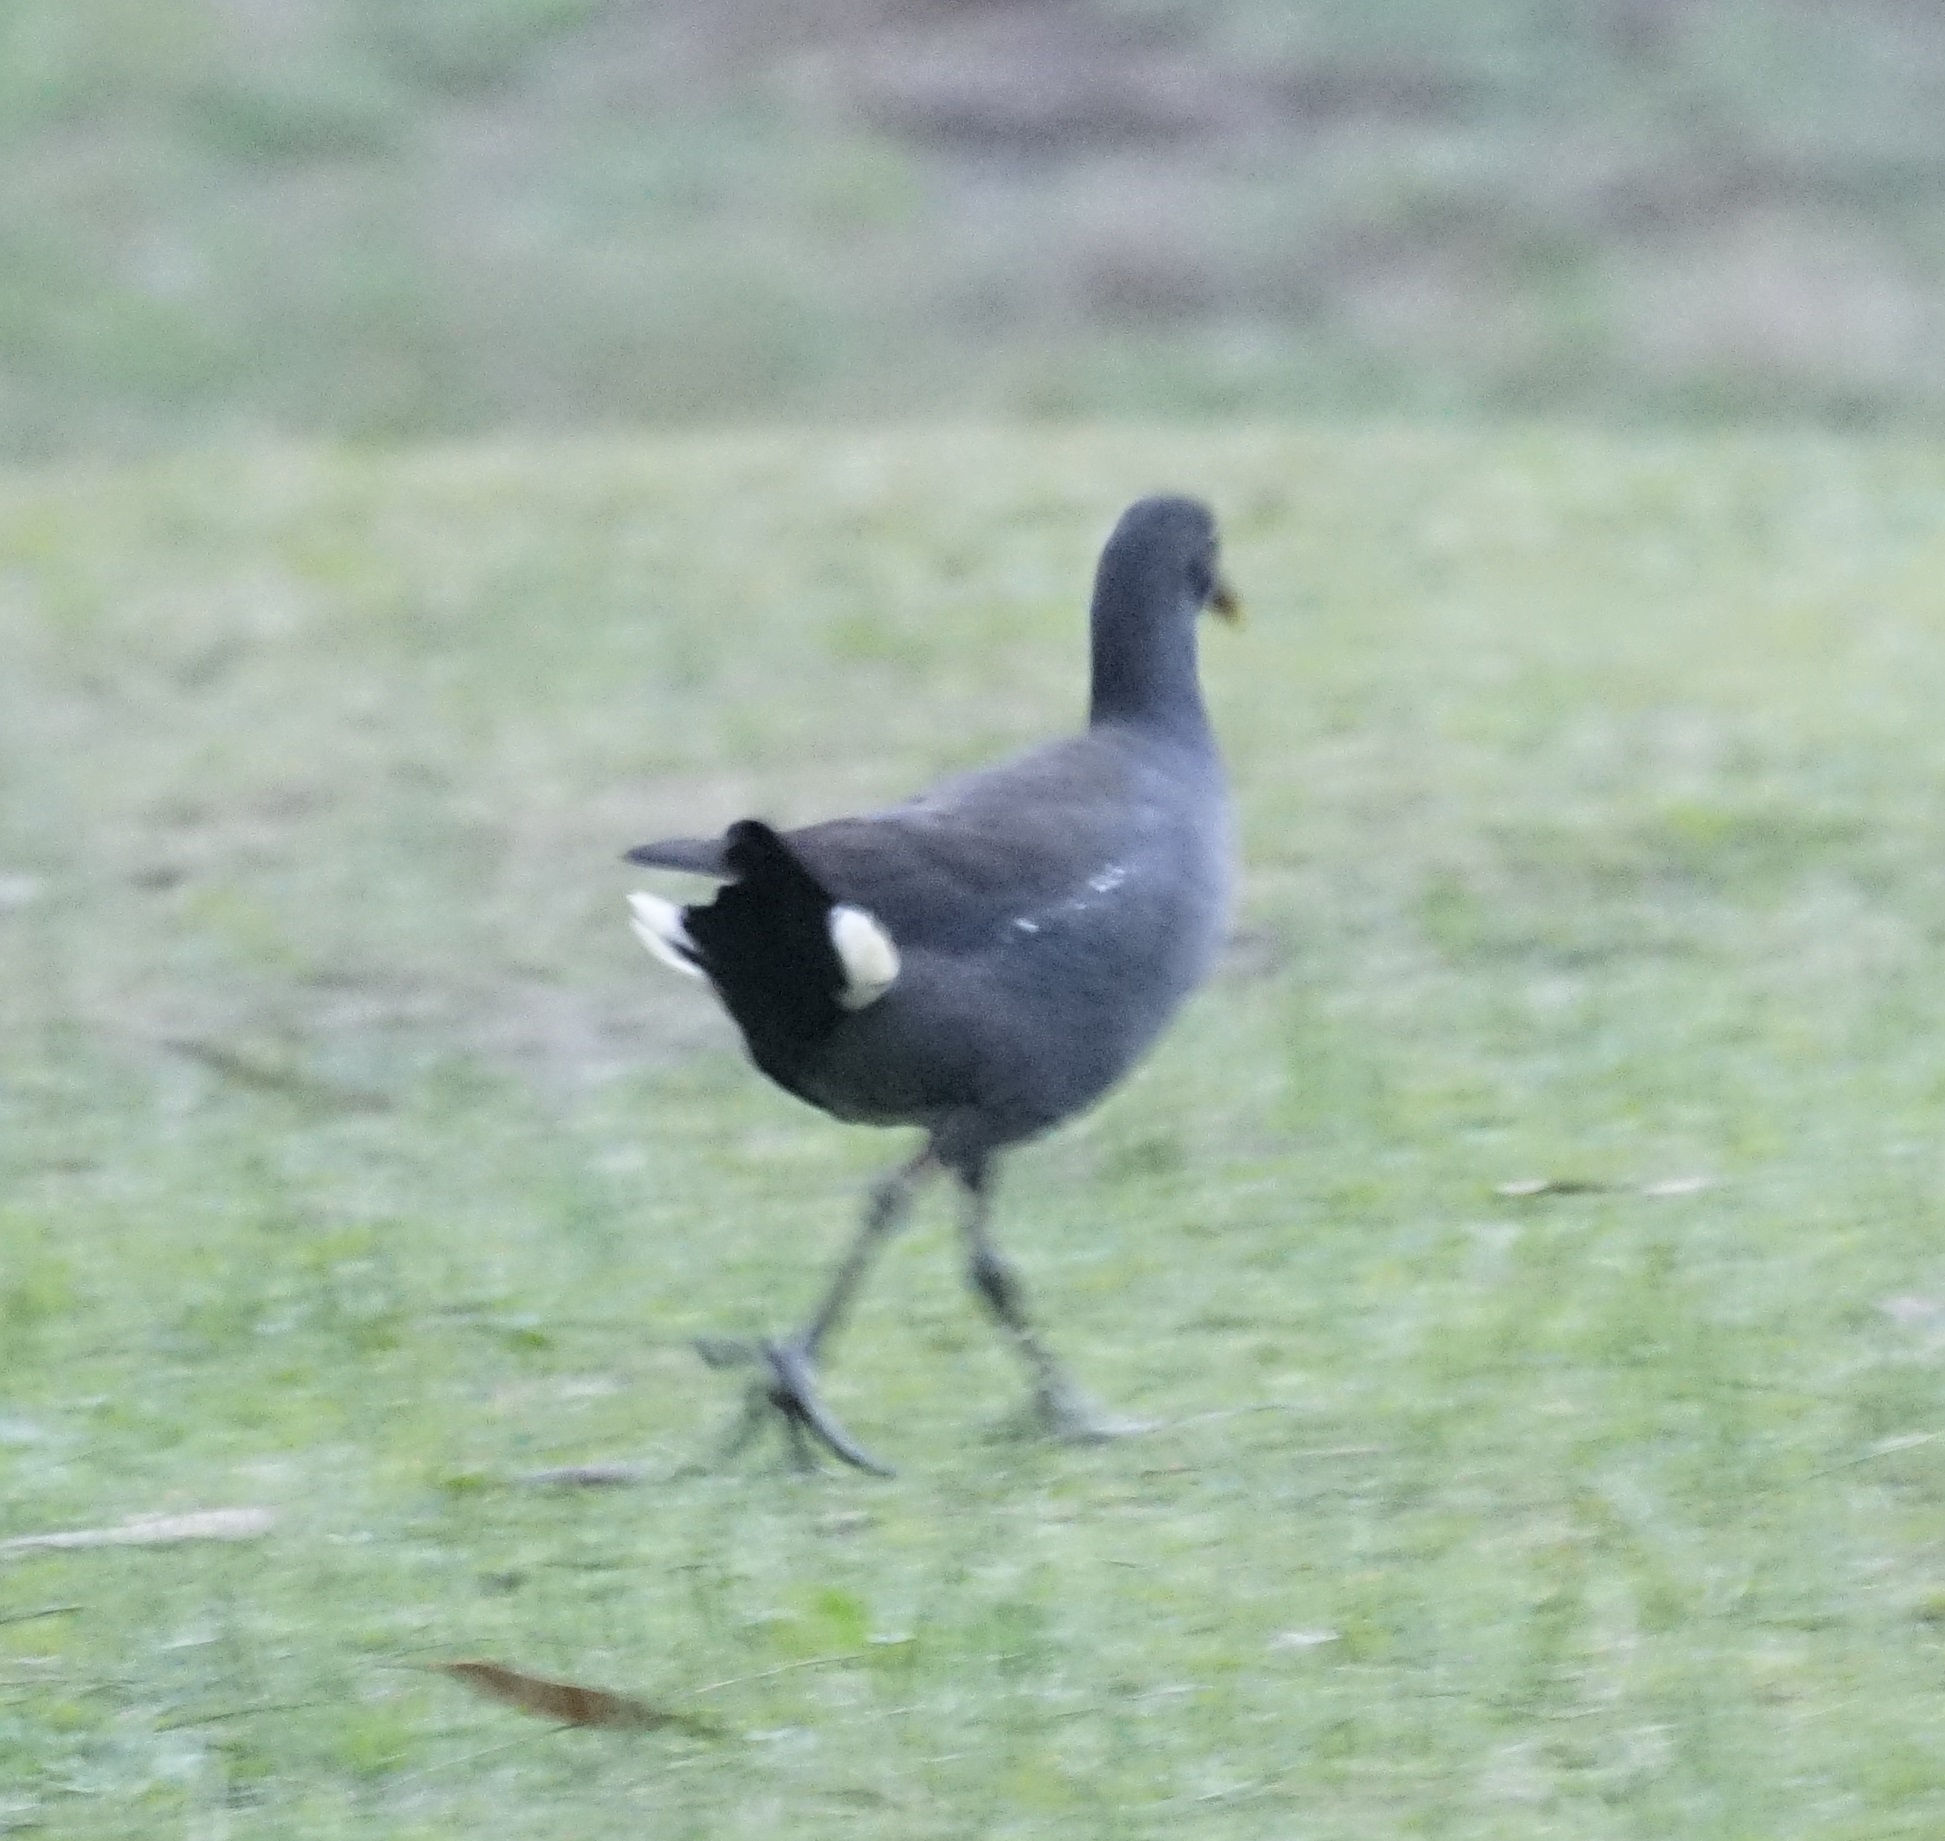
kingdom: Animalia
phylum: Chordata
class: Aves
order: Gruiformes
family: Rallidae
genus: Gallinula
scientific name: Gallinula tenebrosa
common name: Dusky moorhen
